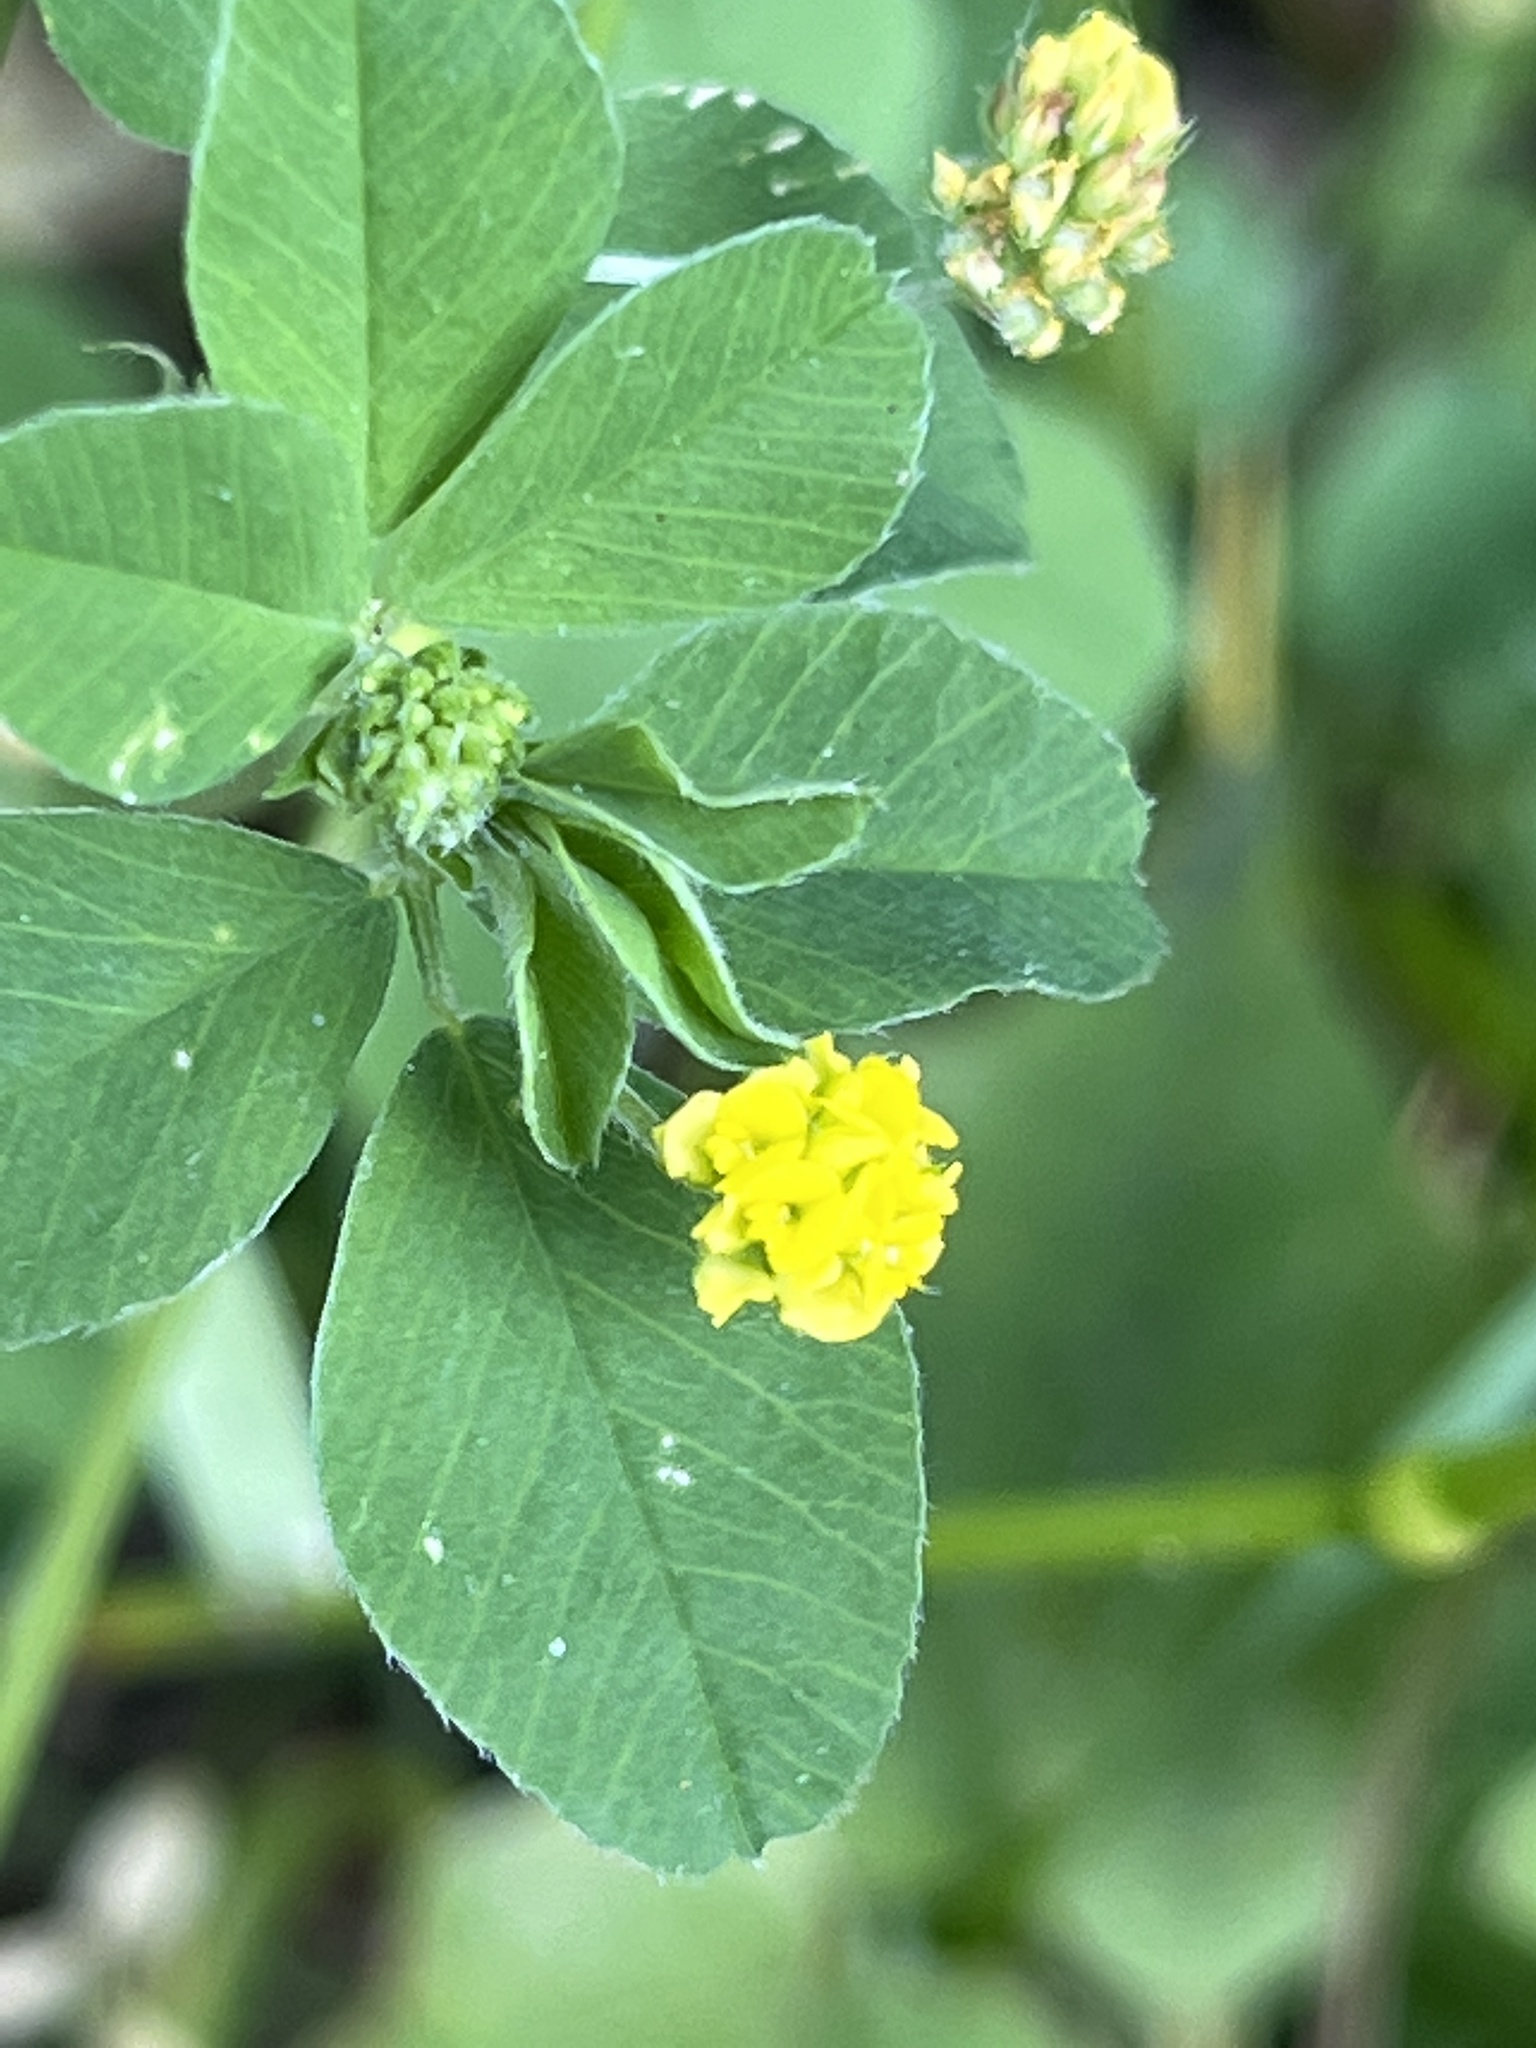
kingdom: Plantae
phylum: Tracheophyta
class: Magnoliopsida
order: Fabales
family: Fabaceae
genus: Medicago
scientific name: Medicago lupulina
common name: Black medick
